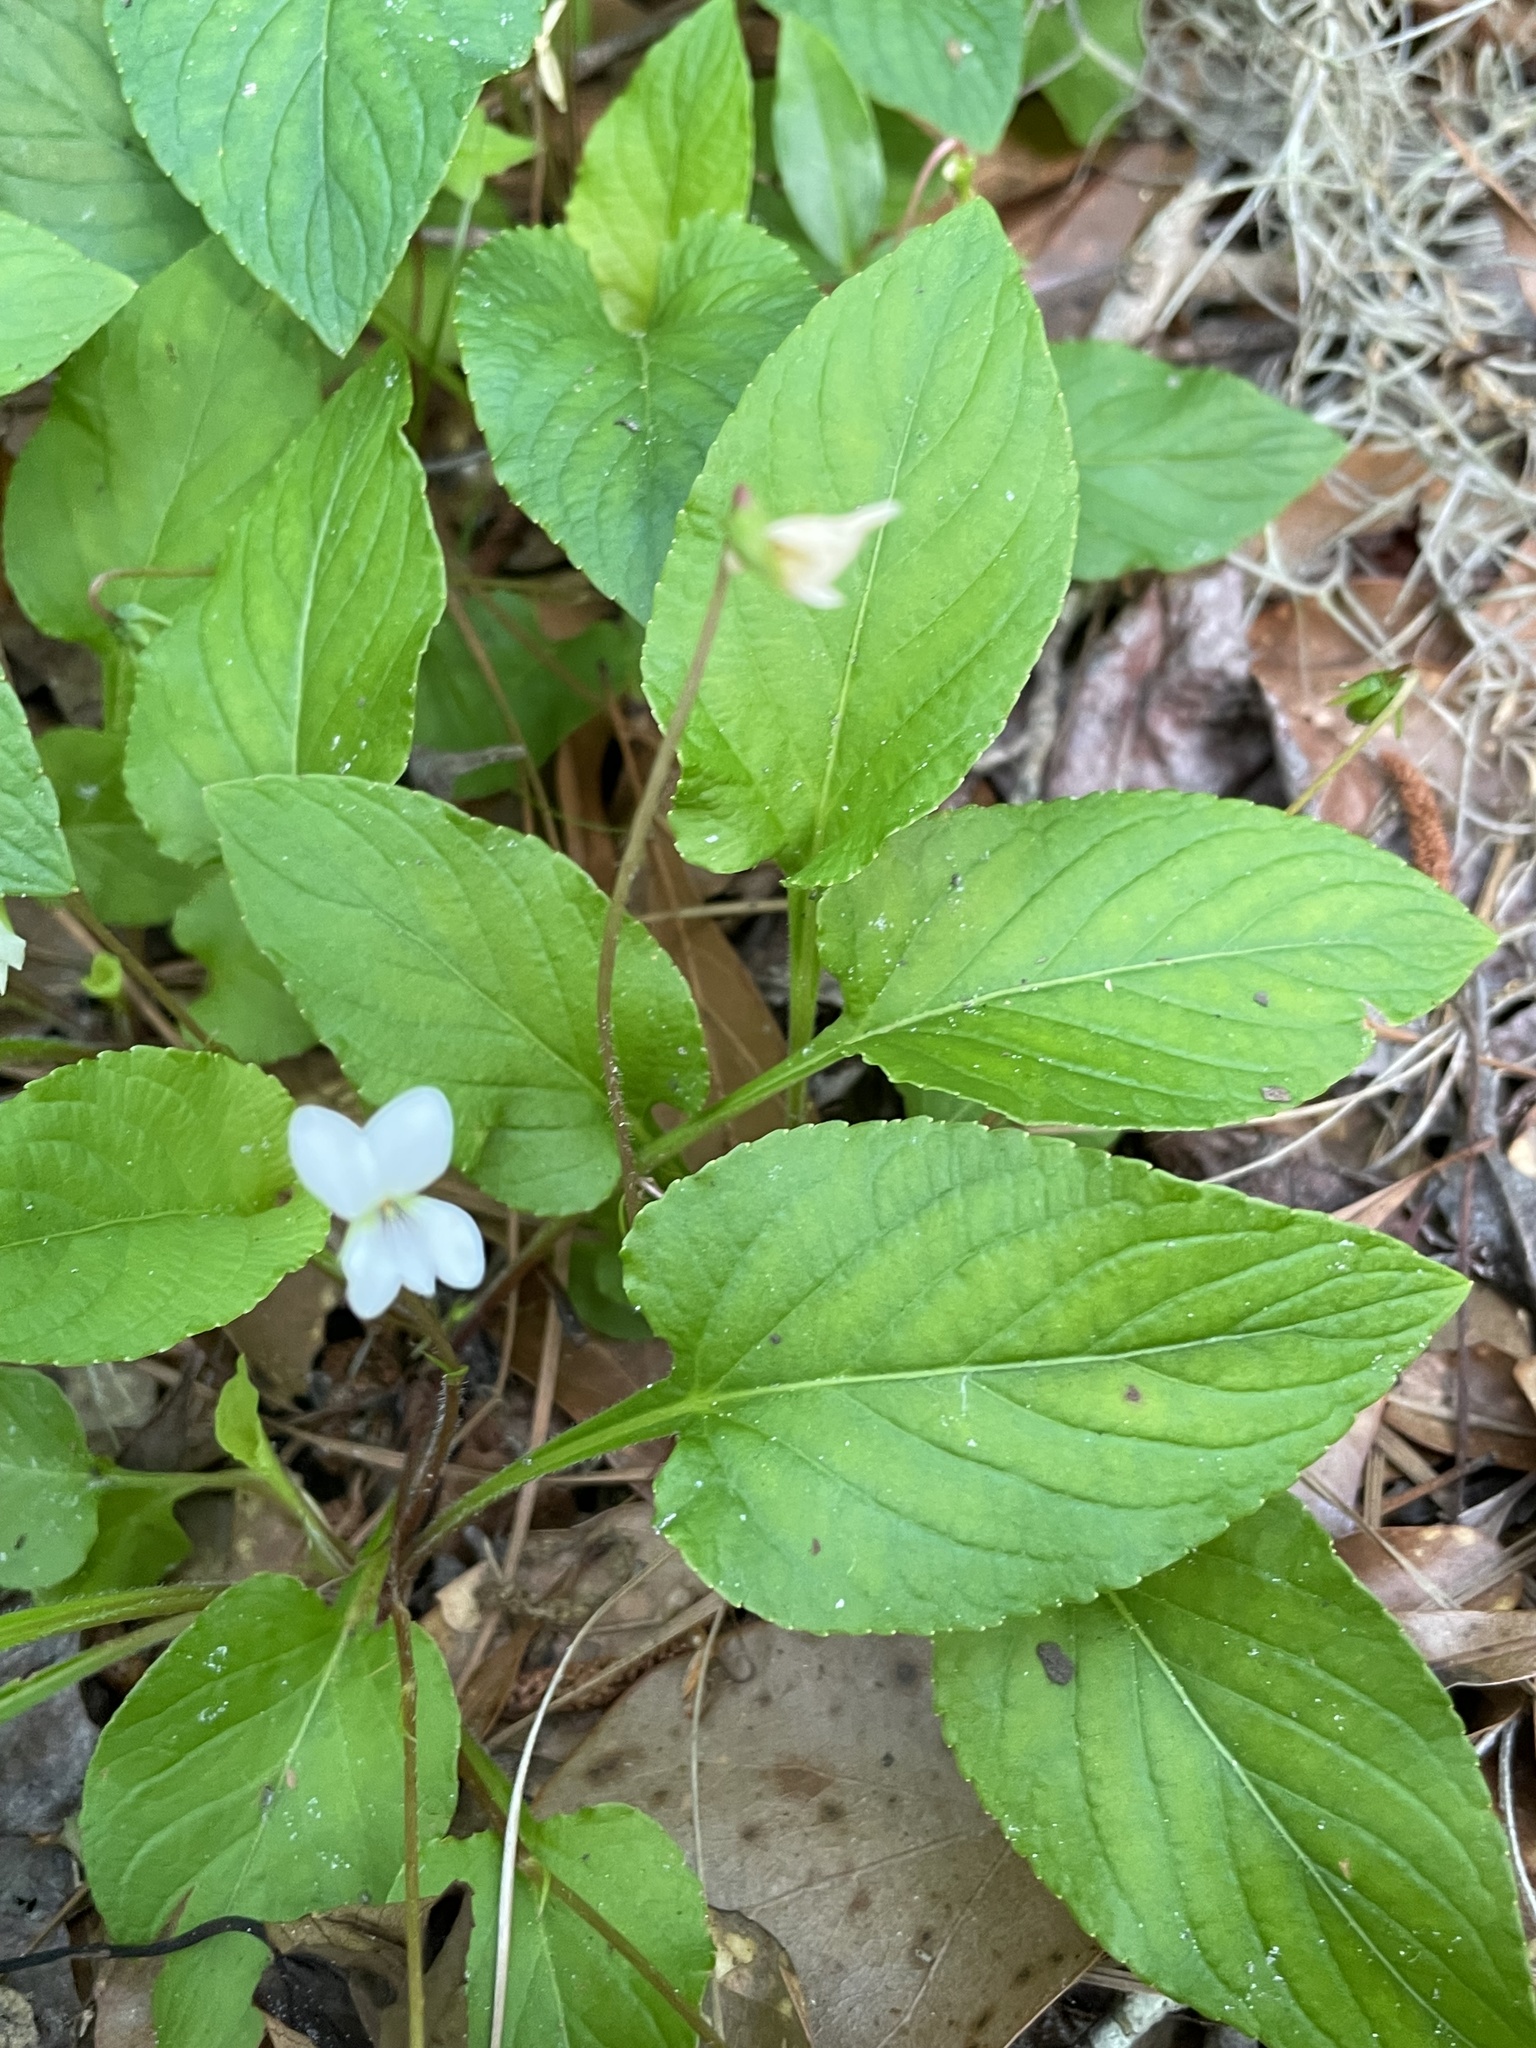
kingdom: Plantae
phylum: Tracheophyta
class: Magnoliopsida
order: Malpighiales
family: Violaceae
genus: Viola
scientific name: Viola primulifolia
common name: Primrose-leaf violet
